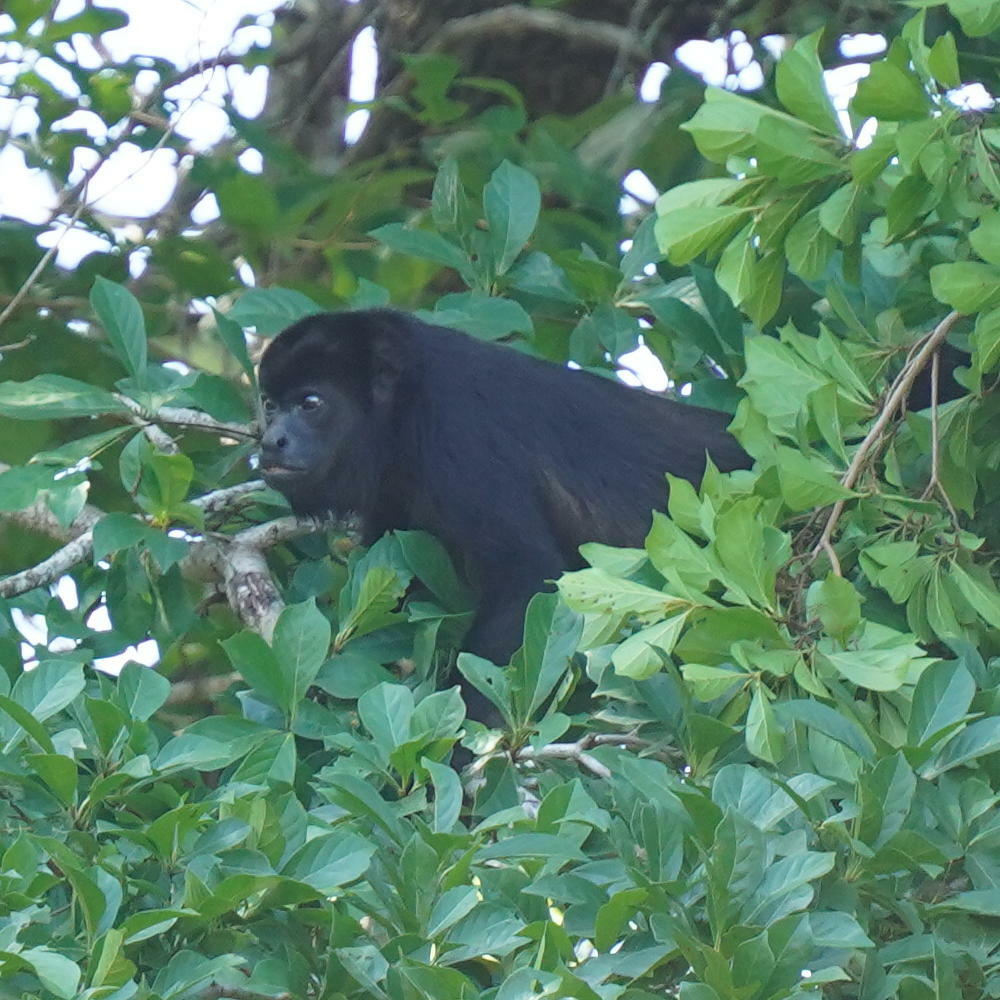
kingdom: Animalia
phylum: Chordata
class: Mammalia
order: Primates
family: Atelidae
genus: Alouatta
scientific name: Alouatta palliata
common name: Mantled howler
